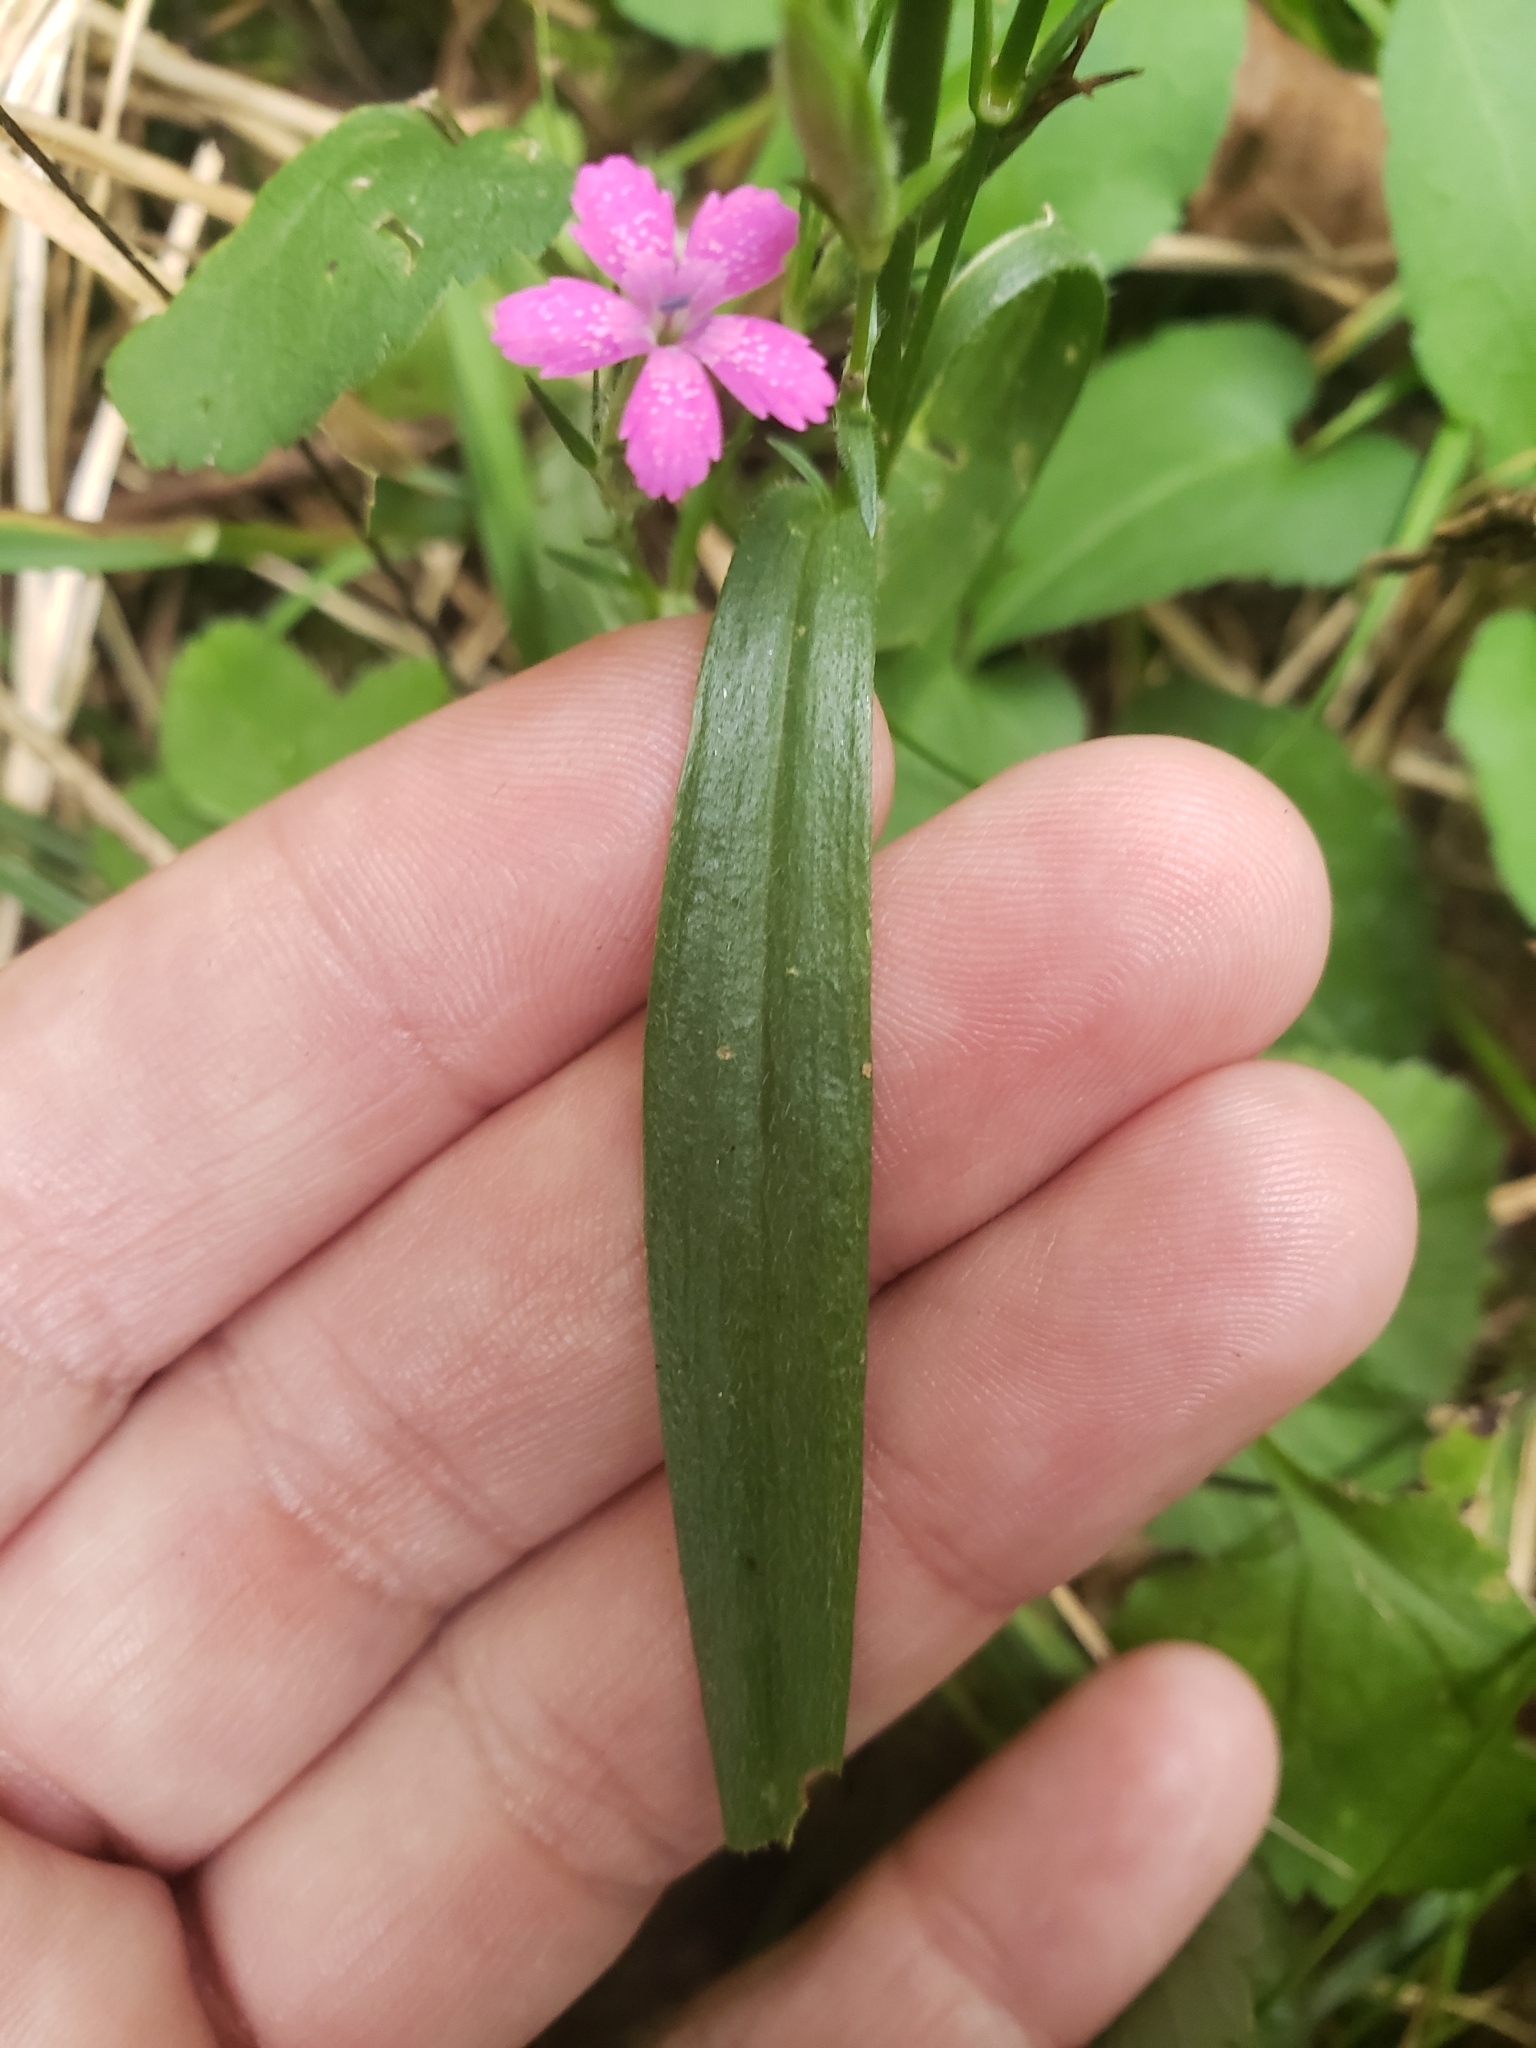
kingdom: Plantae
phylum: Tracheophyta
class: Magnoliopsida
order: Caryophyllales
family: Caryophyllaceae
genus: Dianthus
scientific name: Dianthus armeria
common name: Deptford pink
